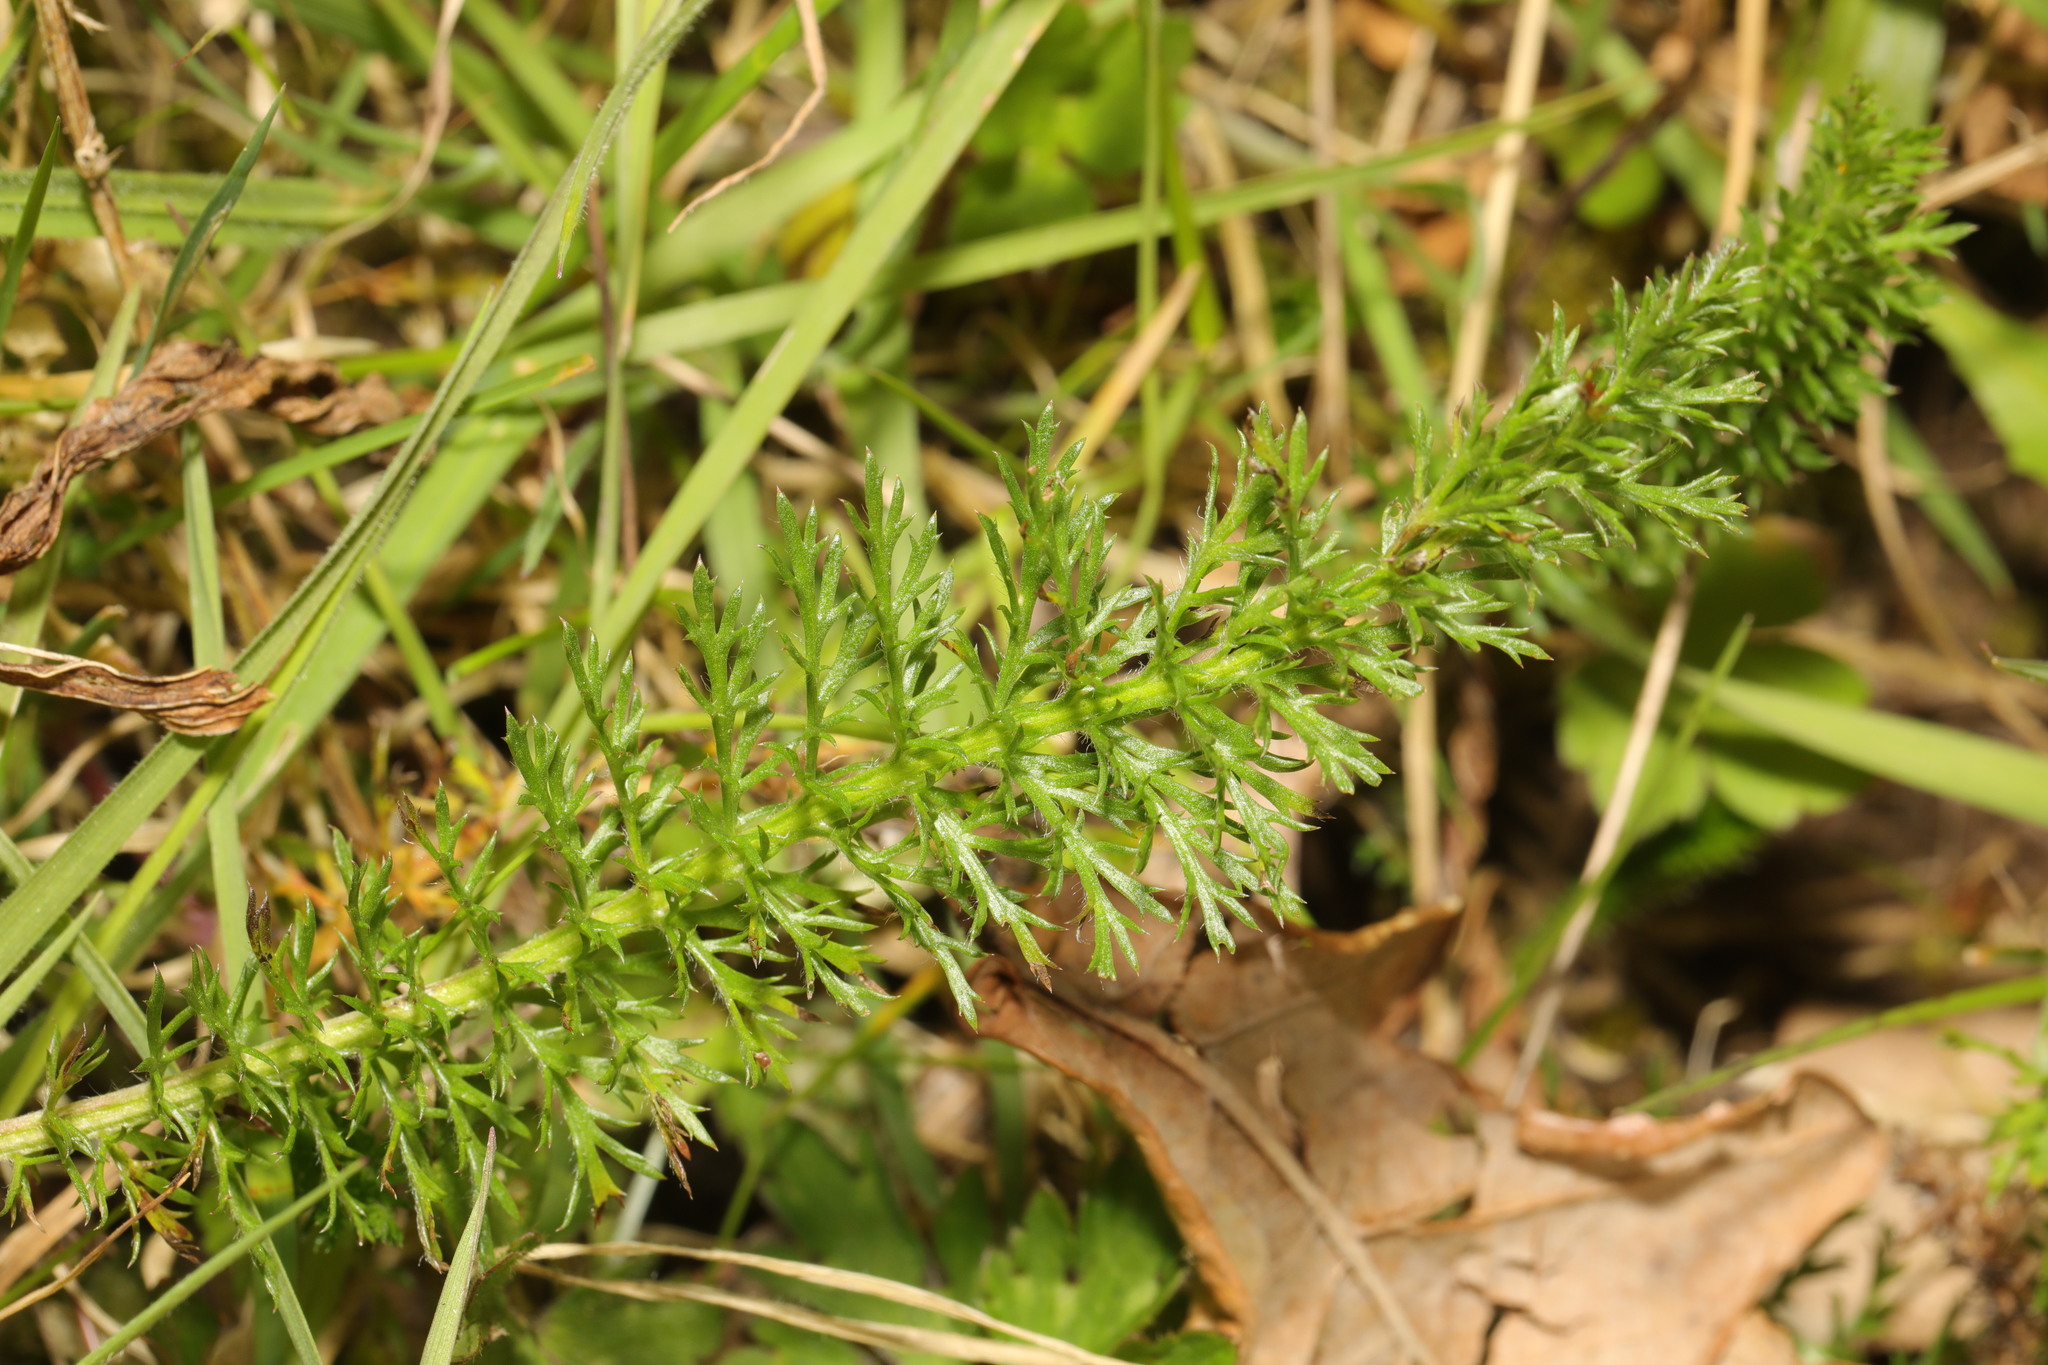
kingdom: Plantae
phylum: Tracheophyta
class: Magnoliopsida
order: Asterales
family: Asteraceae
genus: Achillea
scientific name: Achillea millefolium
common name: Yarrow
